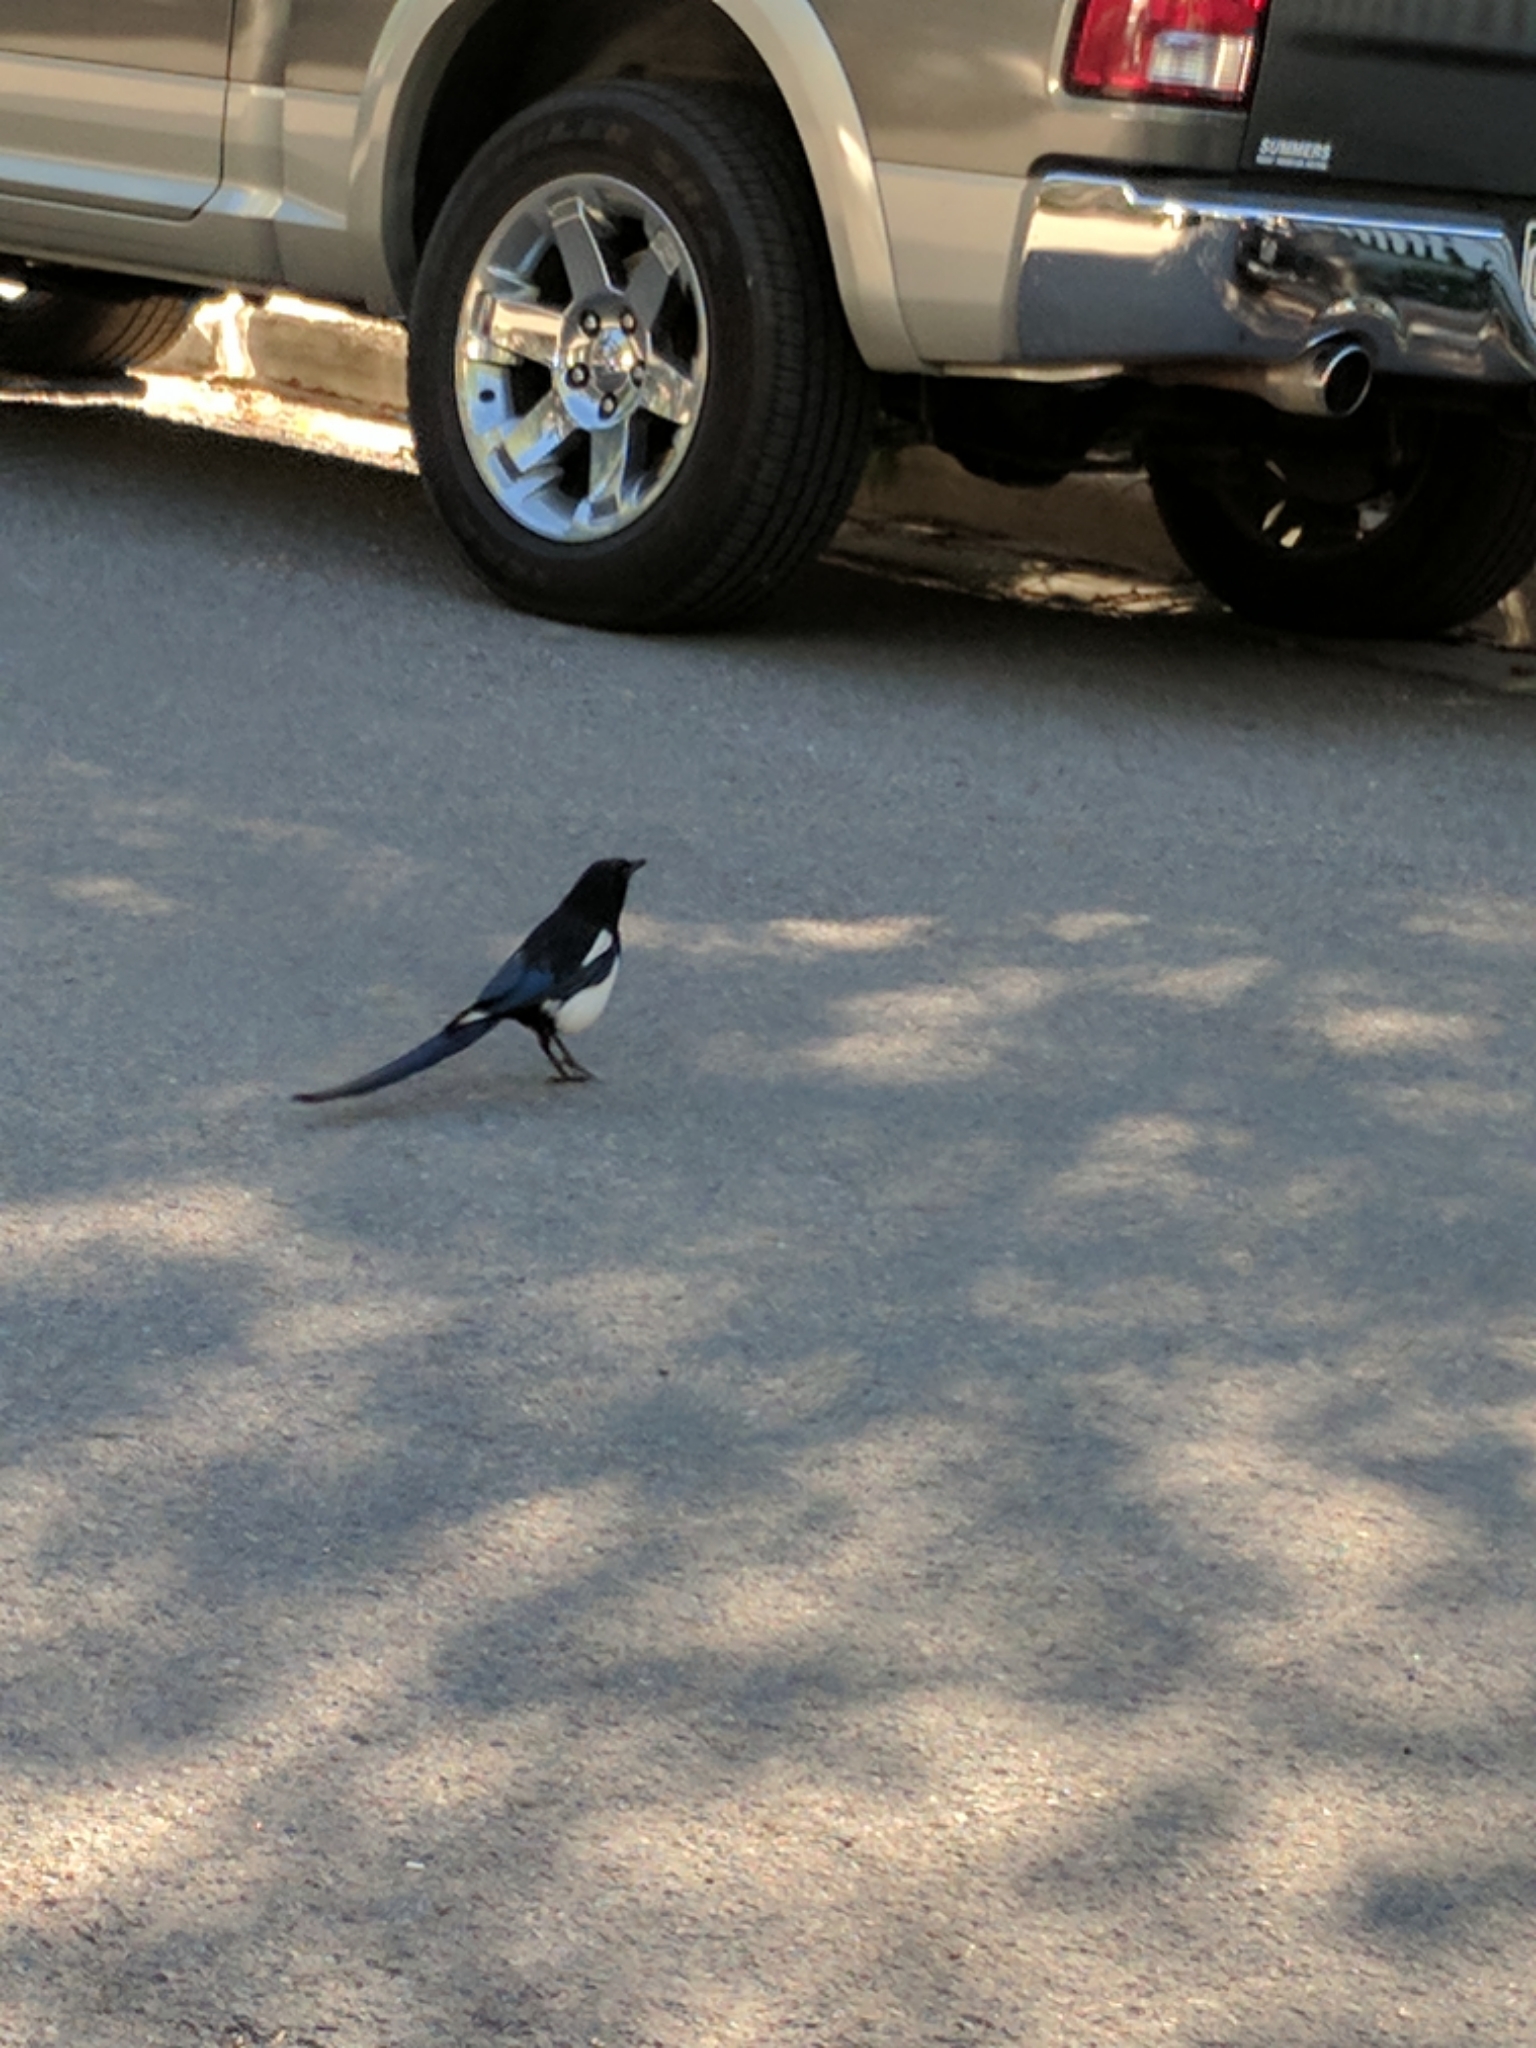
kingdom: Animalia
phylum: Chordata
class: Aves
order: Passeriformes
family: Corvidae
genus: Pica
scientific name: Pica hudsonia
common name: Black-billed magpie
